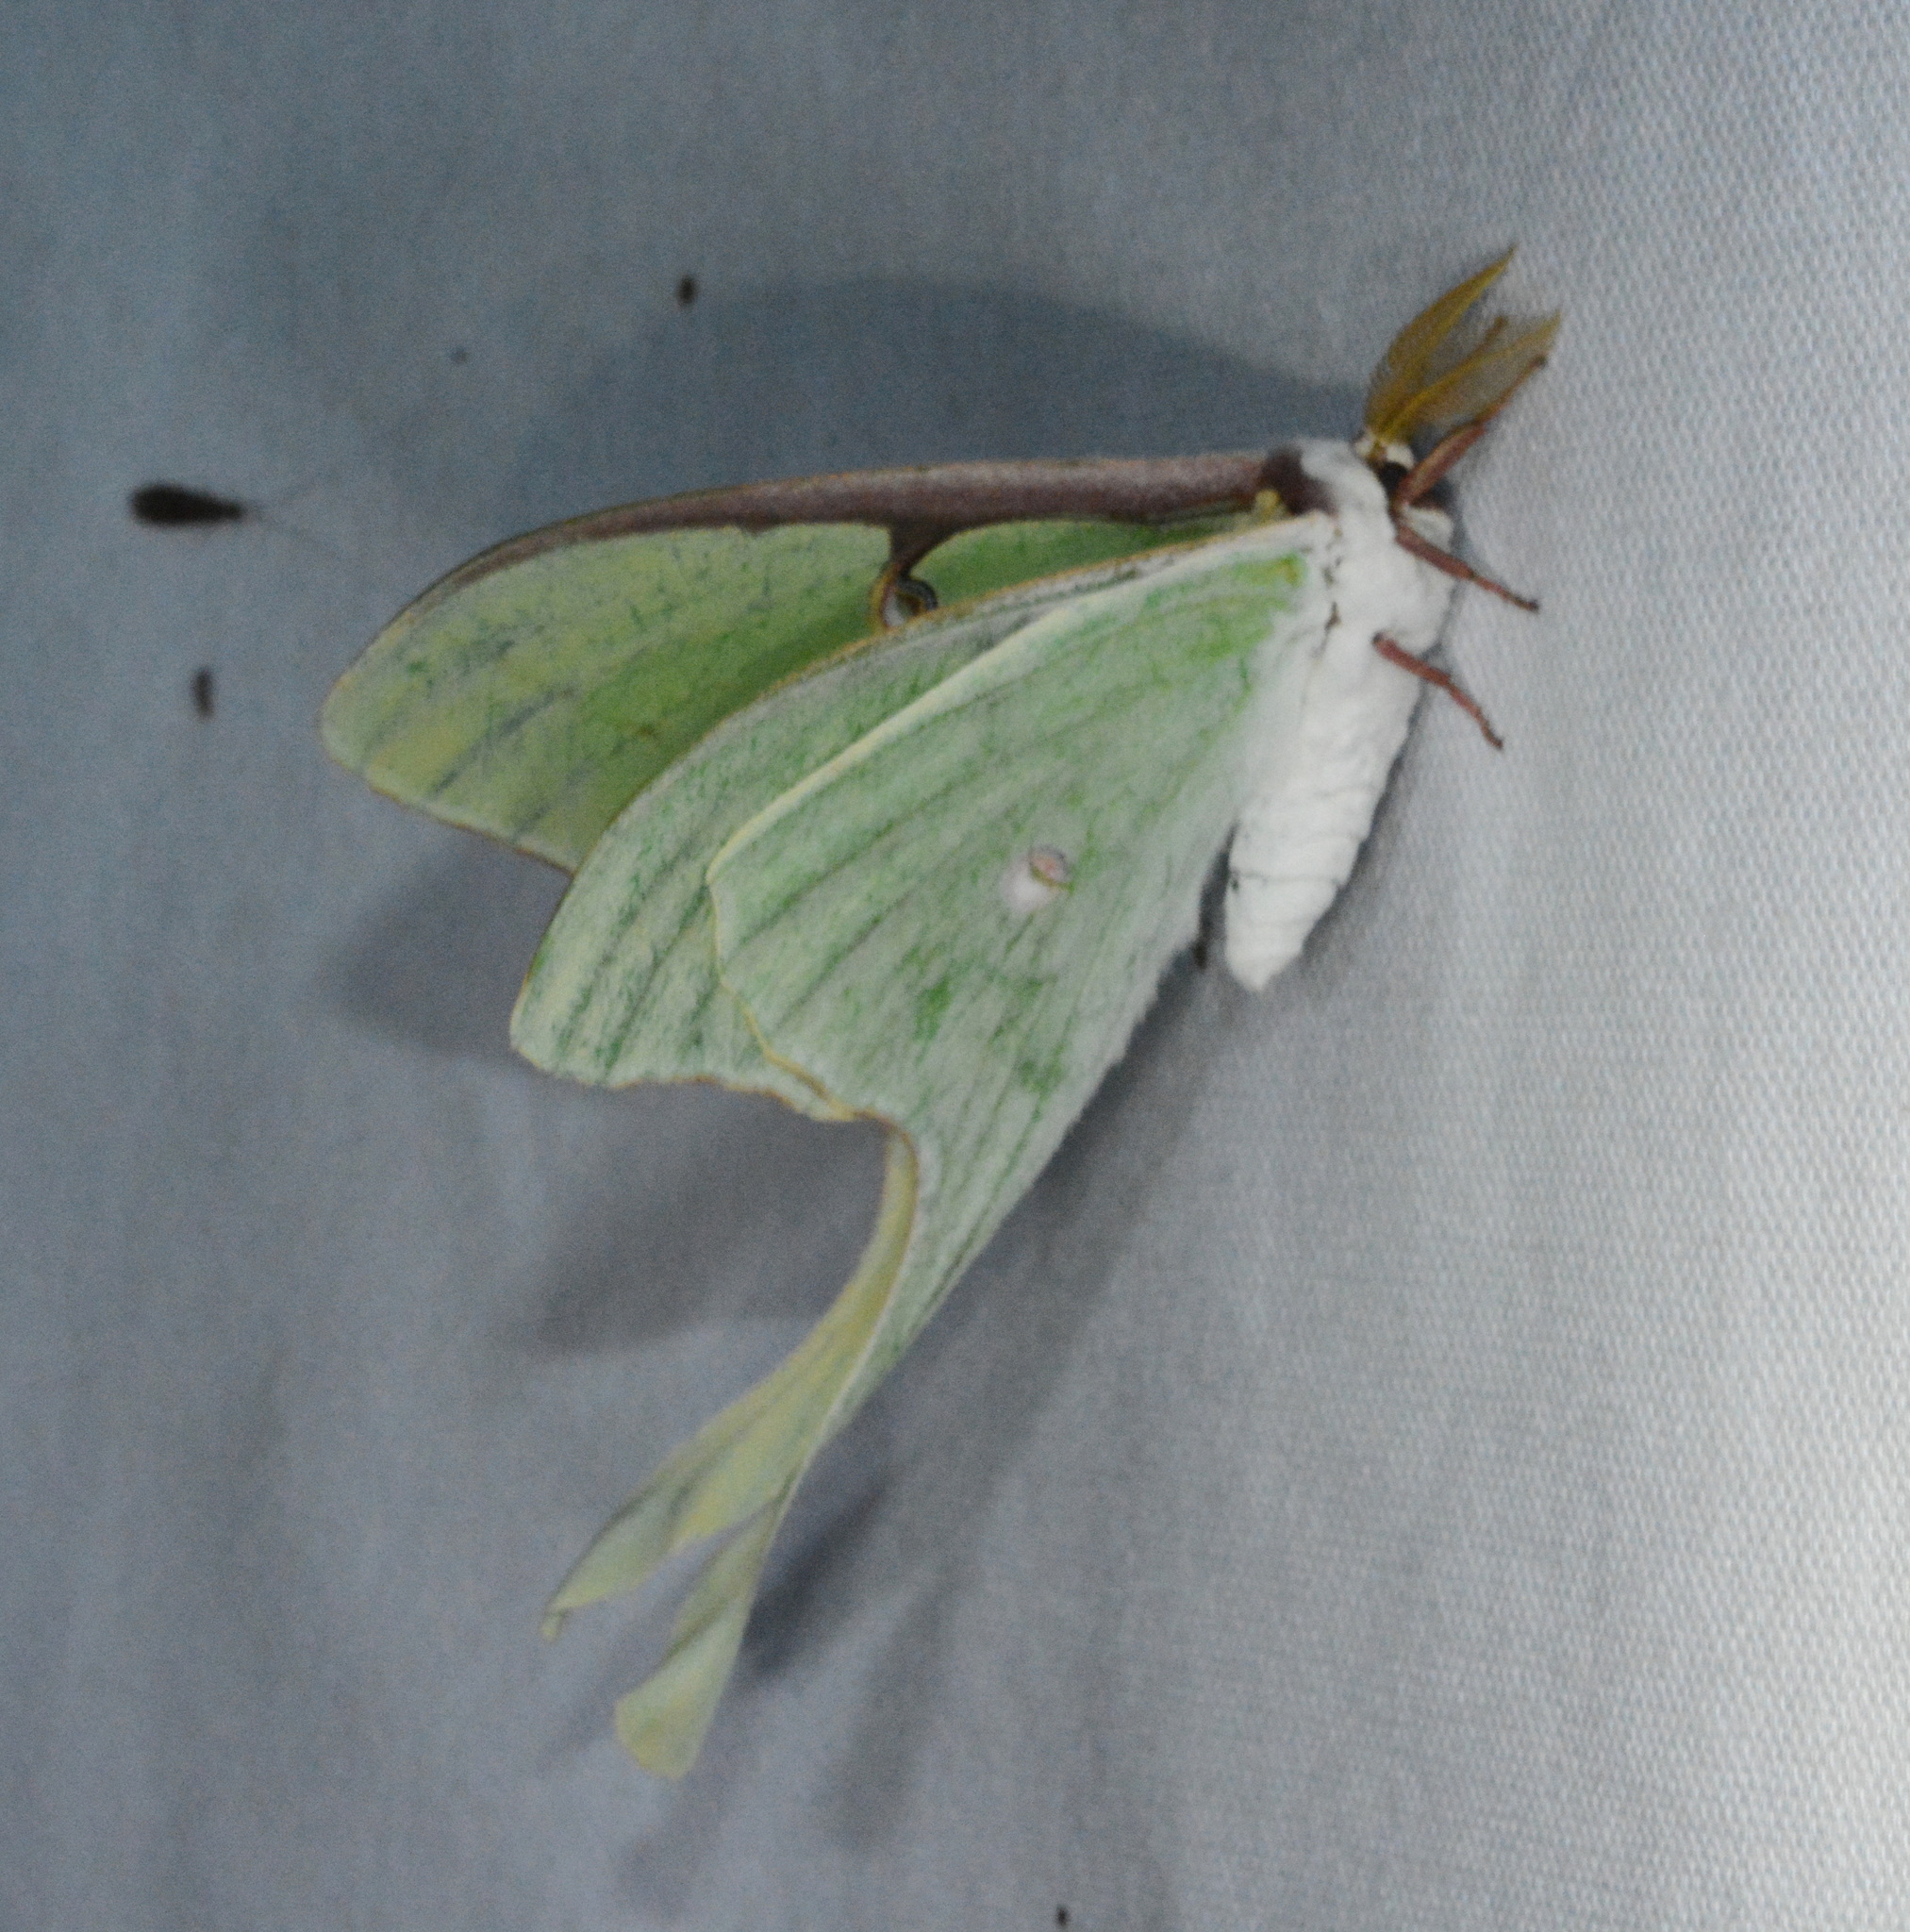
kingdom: Animalia
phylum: Arthropoda
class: Insecta
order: Lepidoptera
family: Saturniidae
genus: Actias
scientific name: Actias luna
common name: Luna moth
